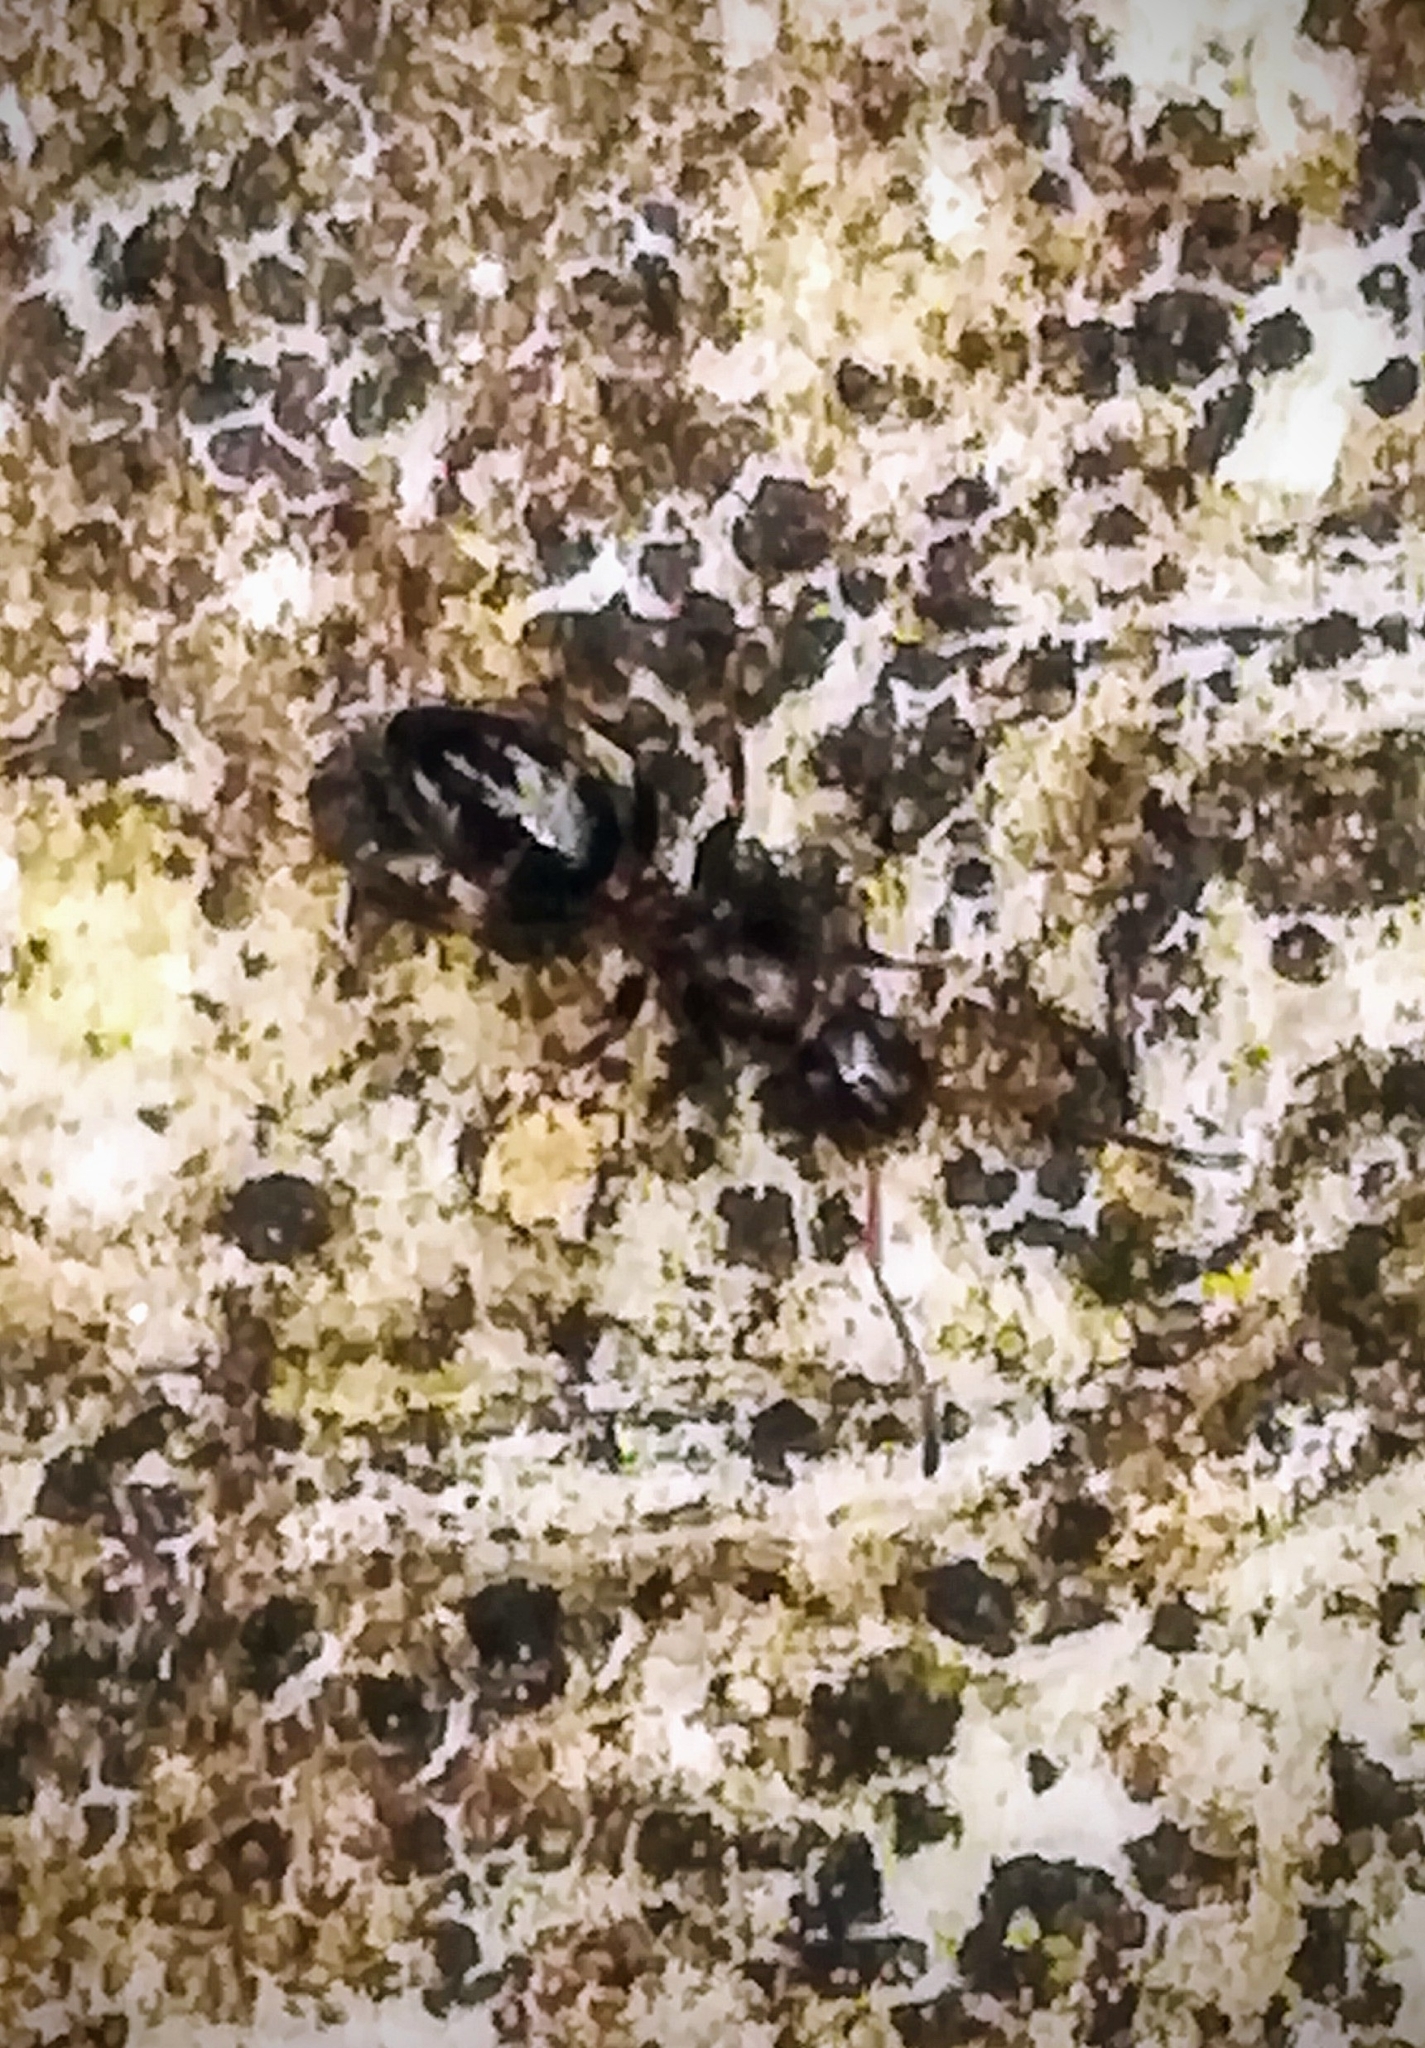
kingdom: Animalia
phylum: Arthropoda
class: Insecta
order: Hymenoptera
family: Formicidae
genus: Camponotus
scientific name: Camponotus truncatus
